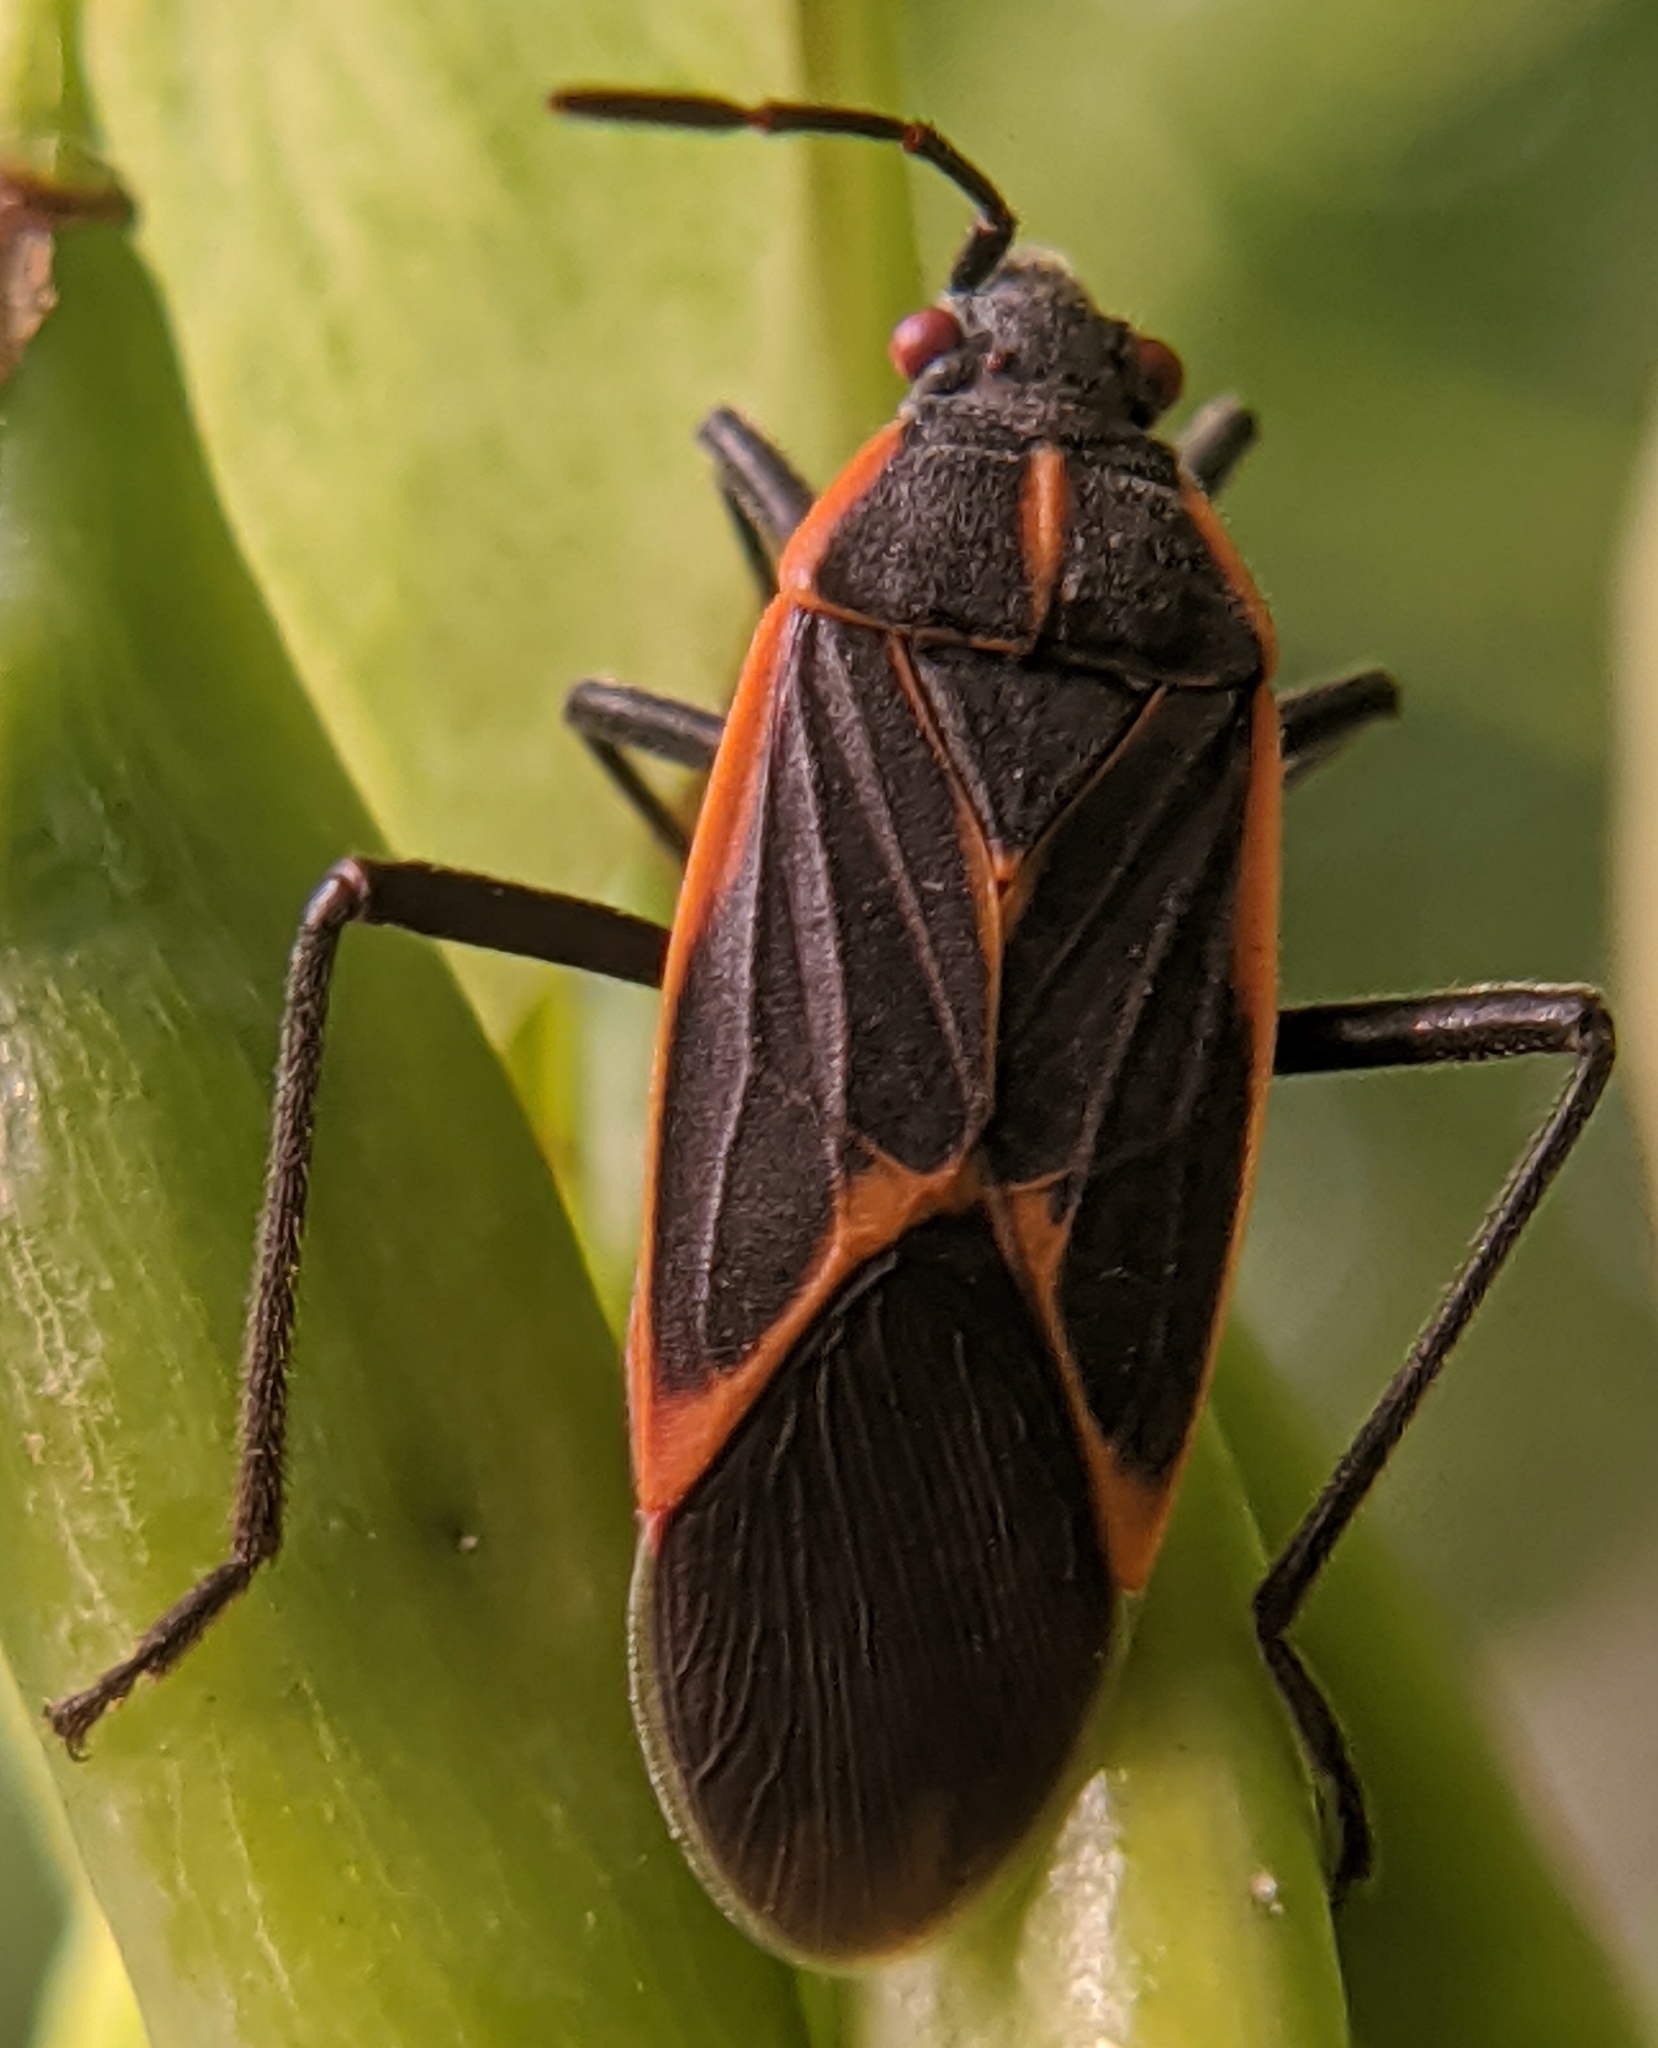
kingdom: Animalia
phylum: Arthropoda
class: Insecta
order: Hemiptera
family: Rhopalidae
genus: Boisea
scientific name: Boisea trivittata
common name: Boxelder bug
